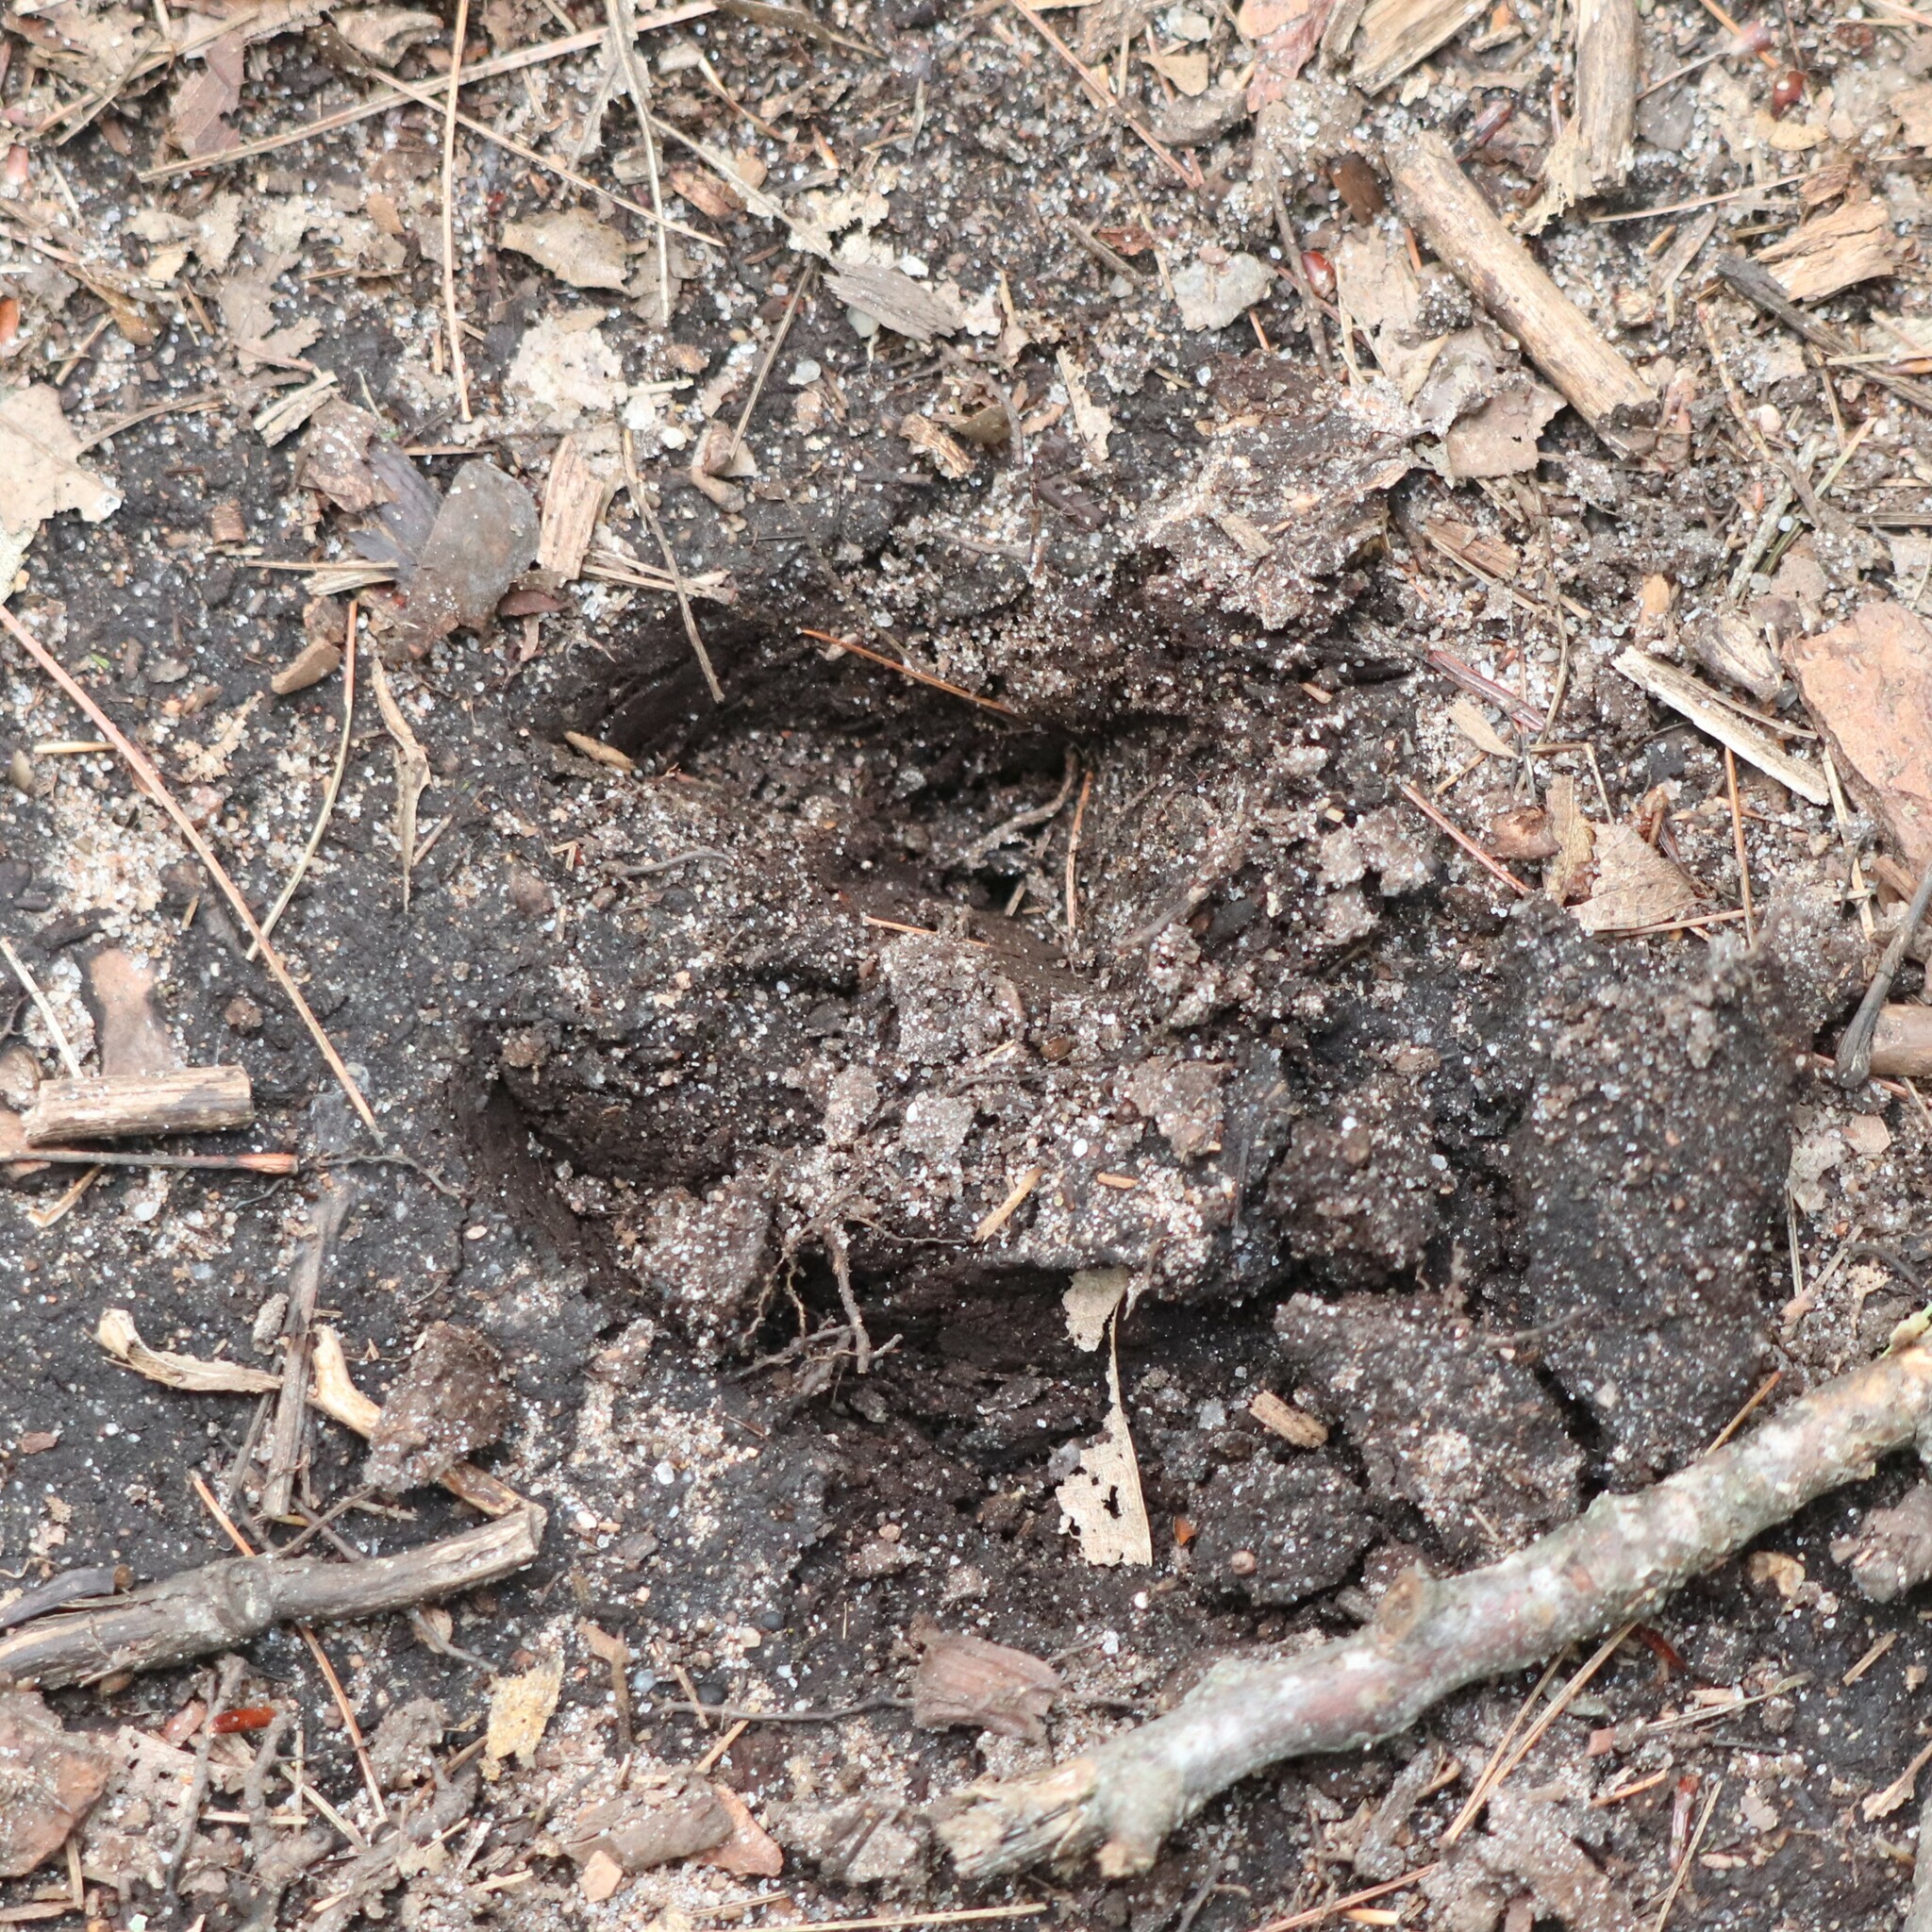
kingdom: Animalia
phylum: Chordata
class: Mammalia
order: Artiodactyla
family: Cervidae
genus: Odocoileus
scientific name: Odocoileus virginianus
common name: White-tailed deer
